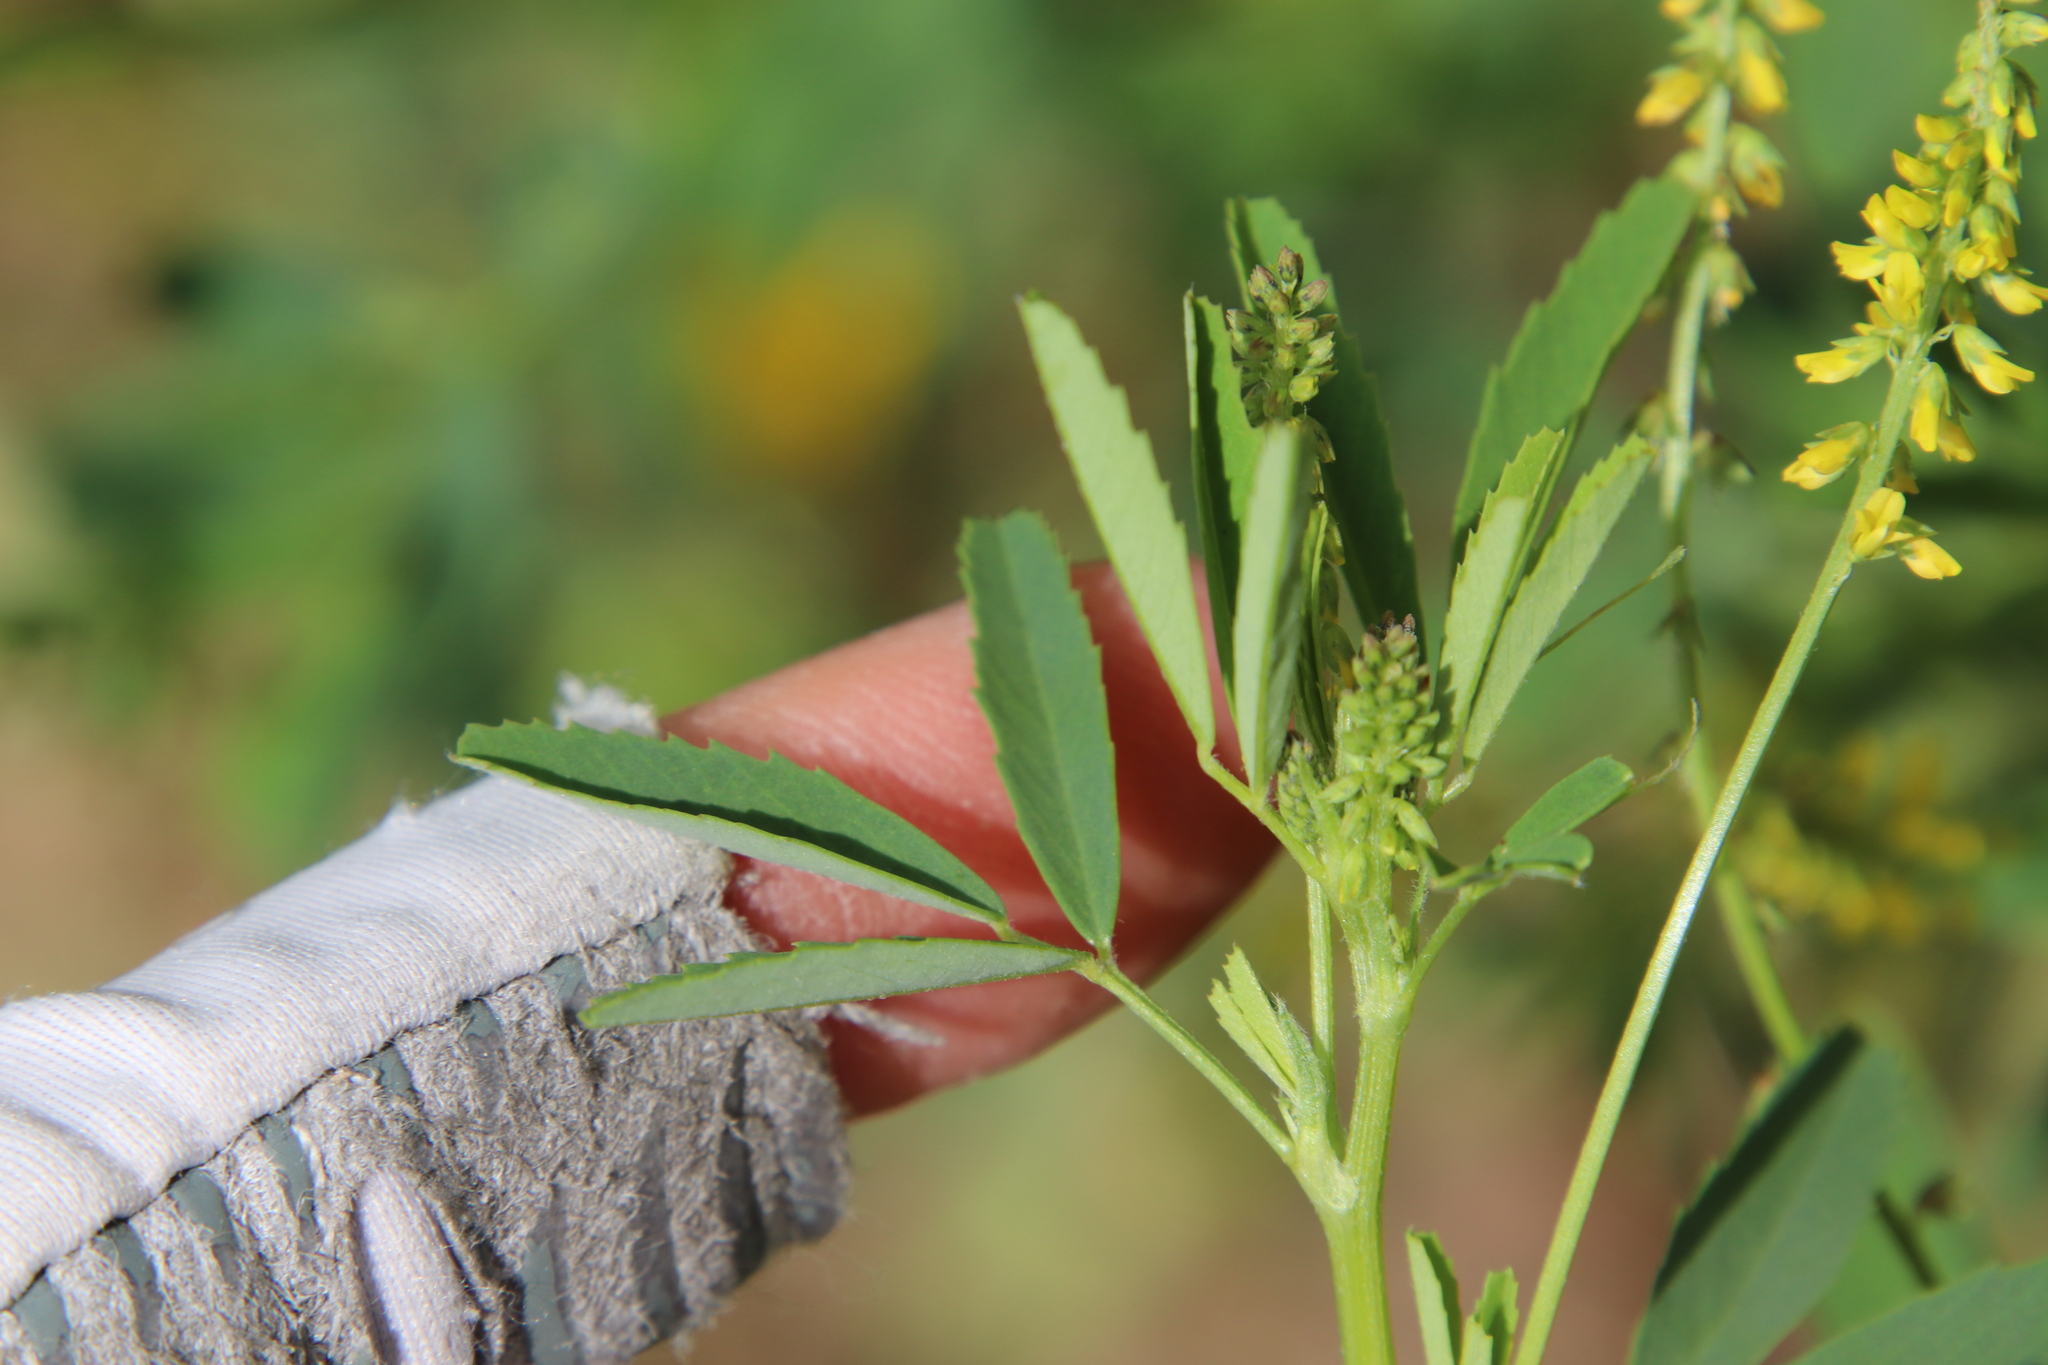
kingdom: Plantae
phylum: Tracheophyta
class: Magnoliopsida
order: Fabales
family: Fabaceae
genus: Melilotus
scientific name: Melilotus indicus
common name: Small melilot
